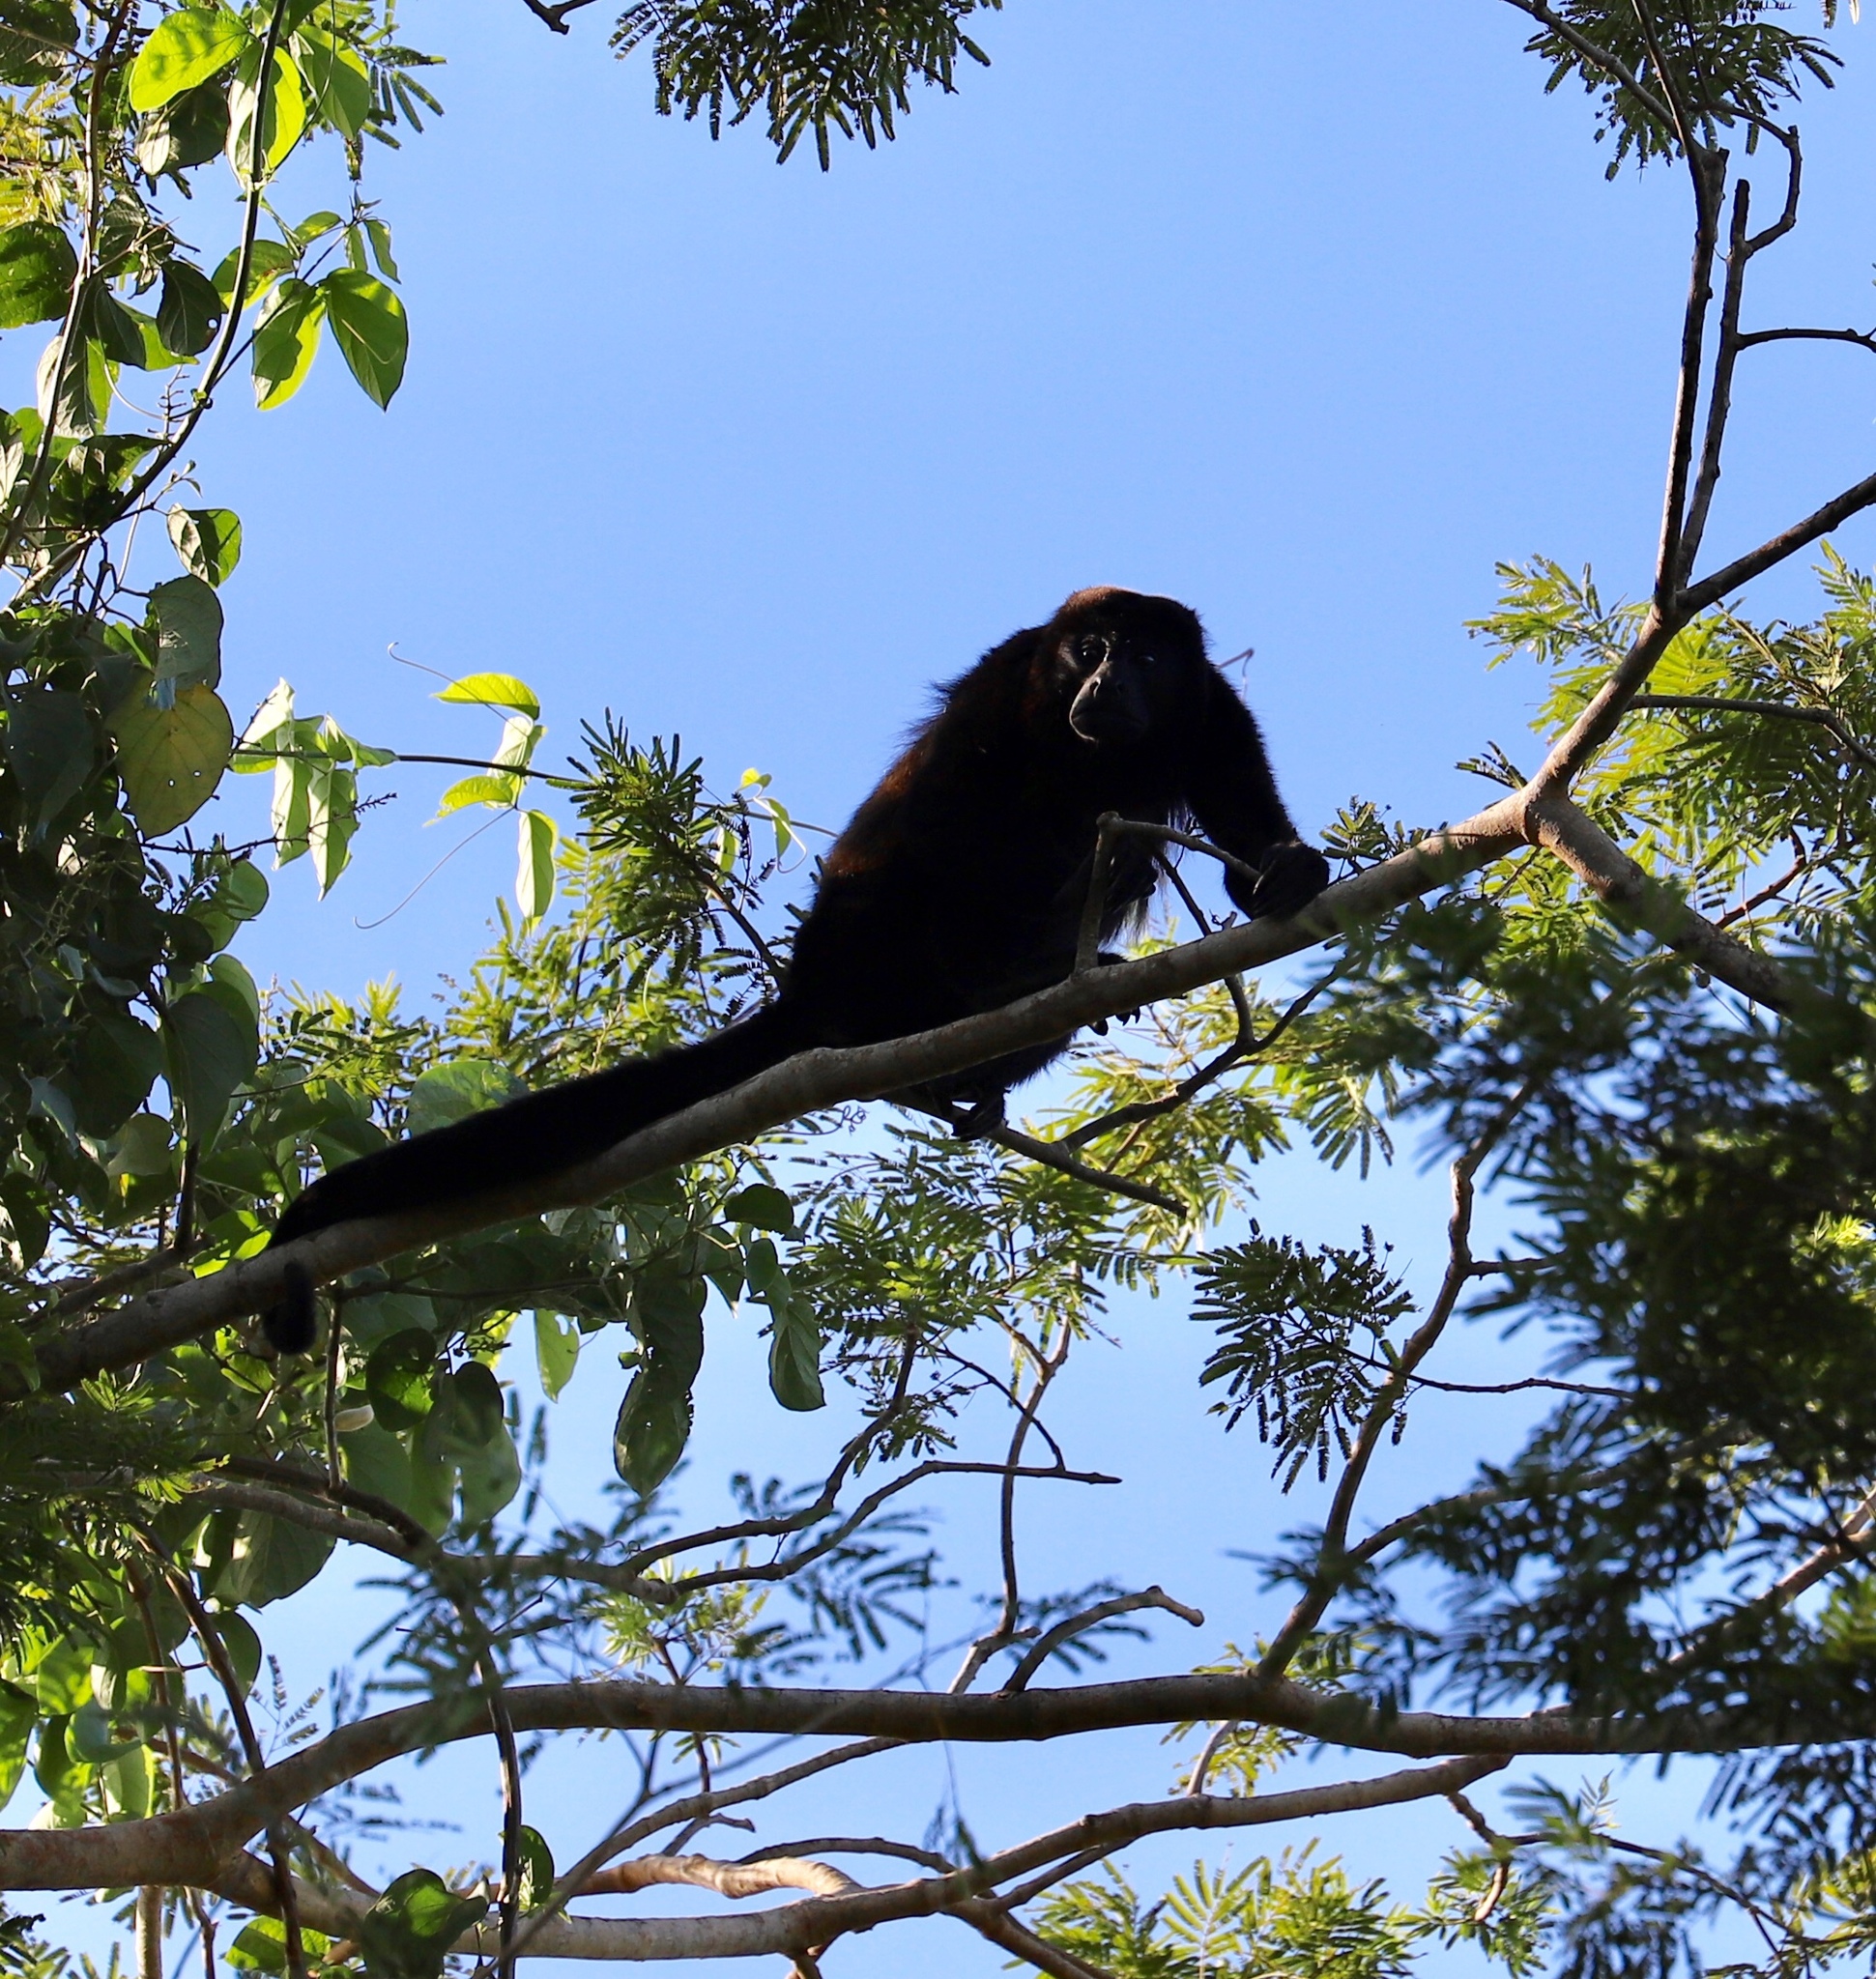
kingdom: Animalia
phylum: Chordata
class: Mammalia
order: Primates
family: Atelidae
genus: Alouatta
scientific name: Alouatta palliata
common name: Mantled howler
